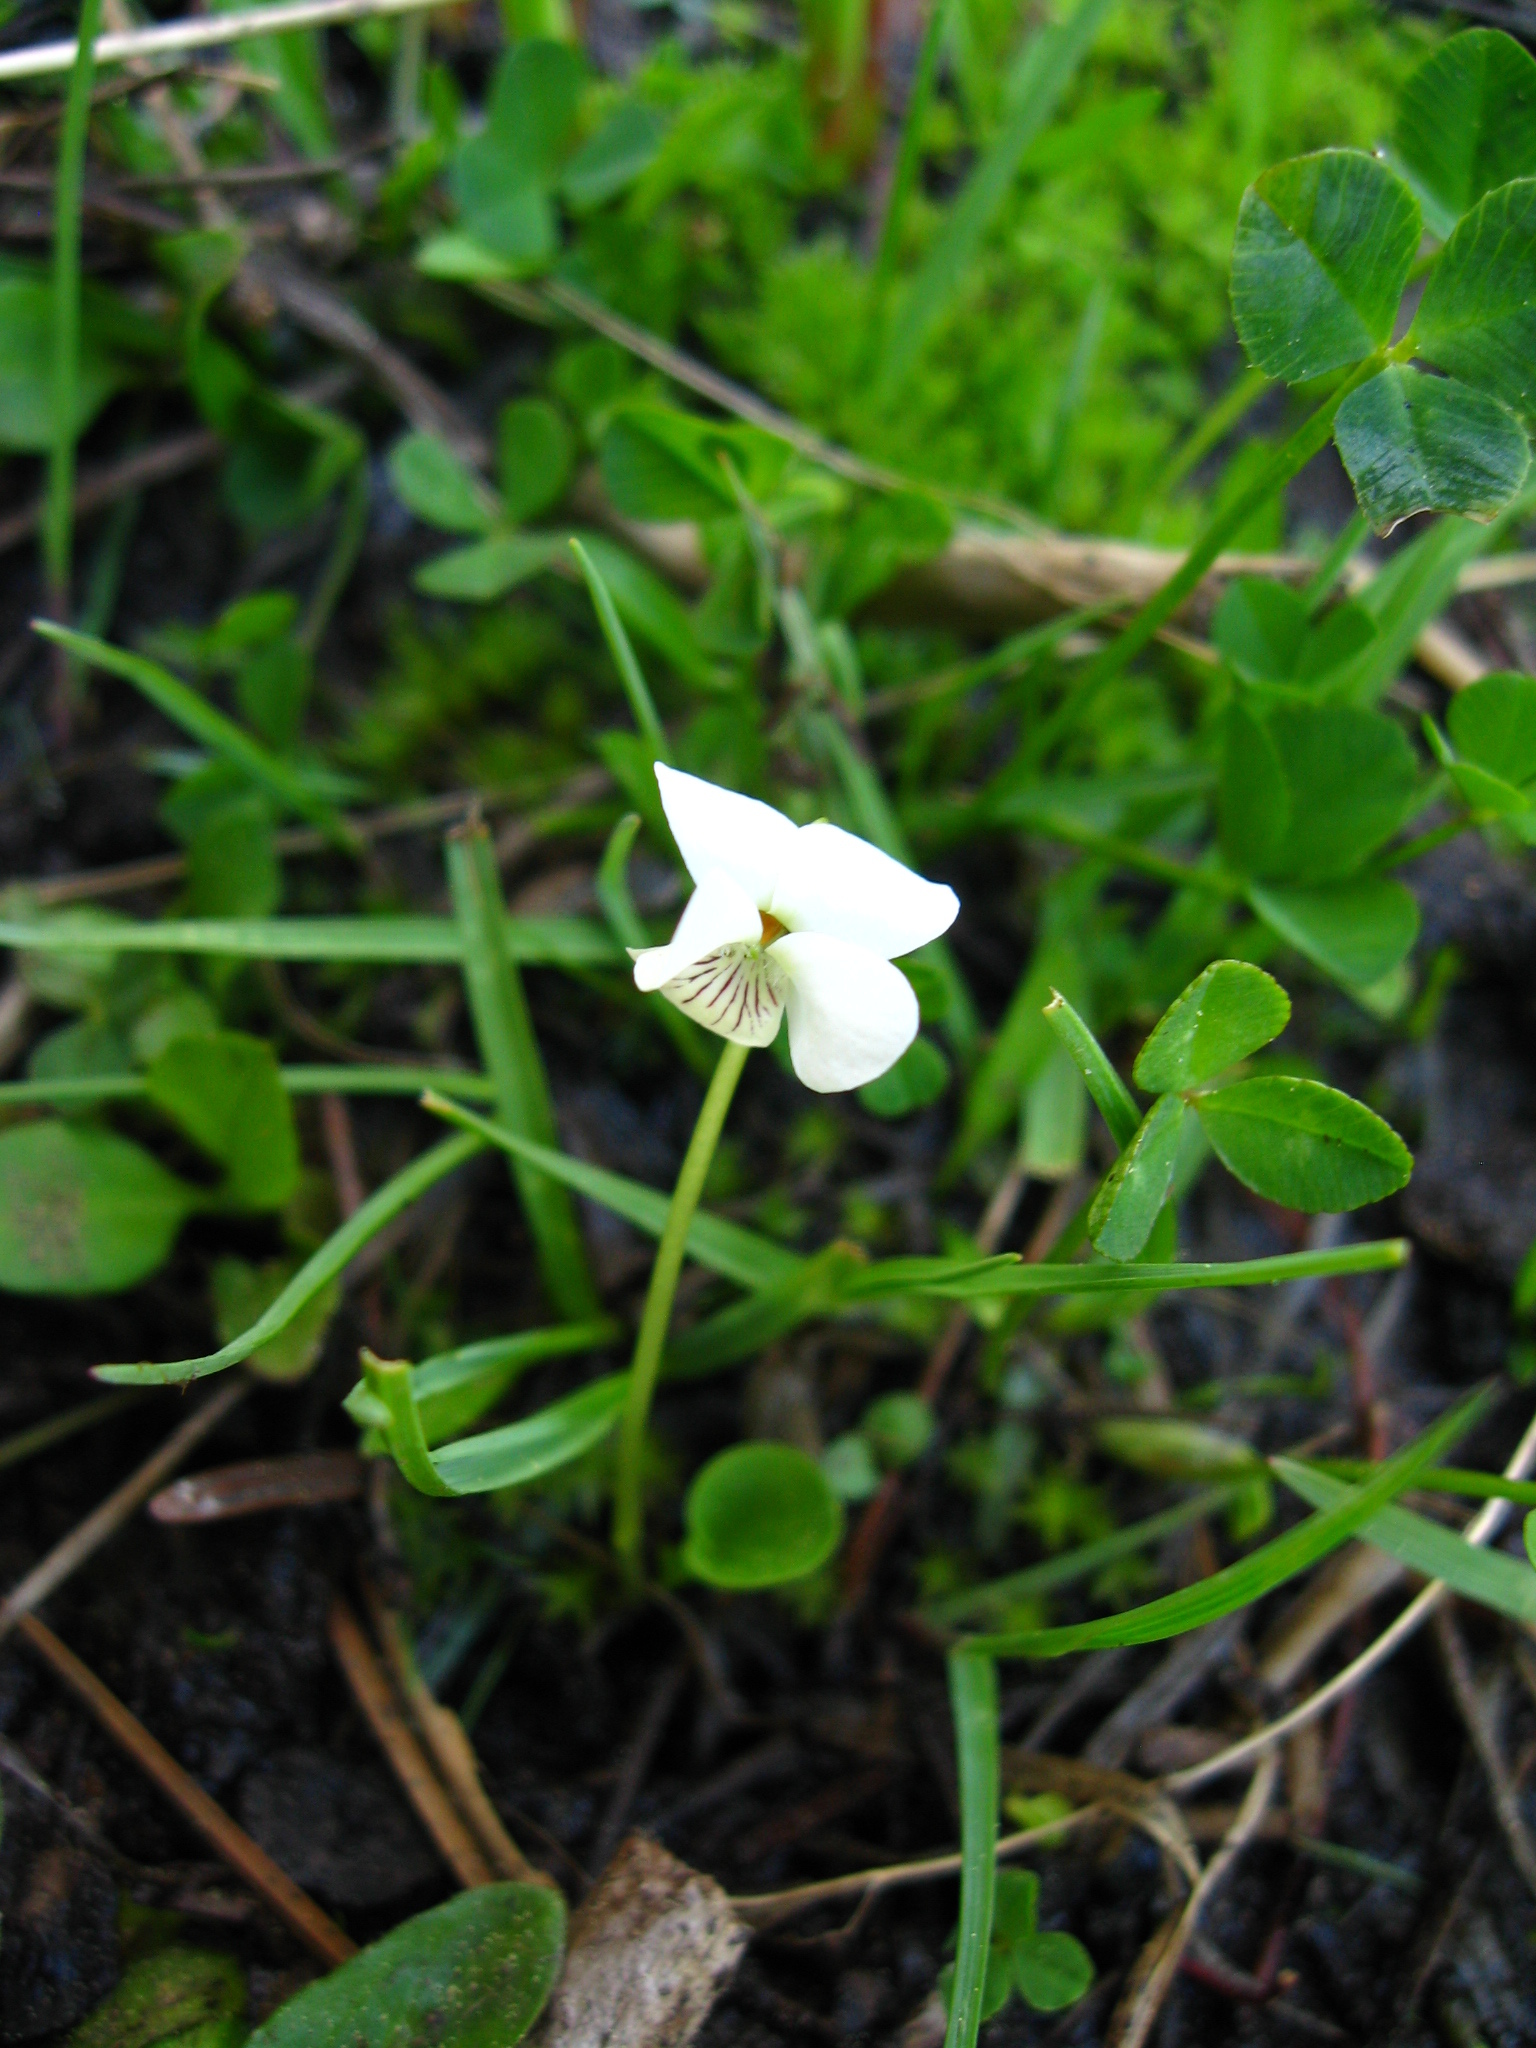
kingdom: Plantae
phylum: Tracheophyta
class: Magnoliopsida
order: Malpighiales
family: Violaceae
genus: Viola
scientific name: Viola macloskeyi
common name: Macloskey's violet
